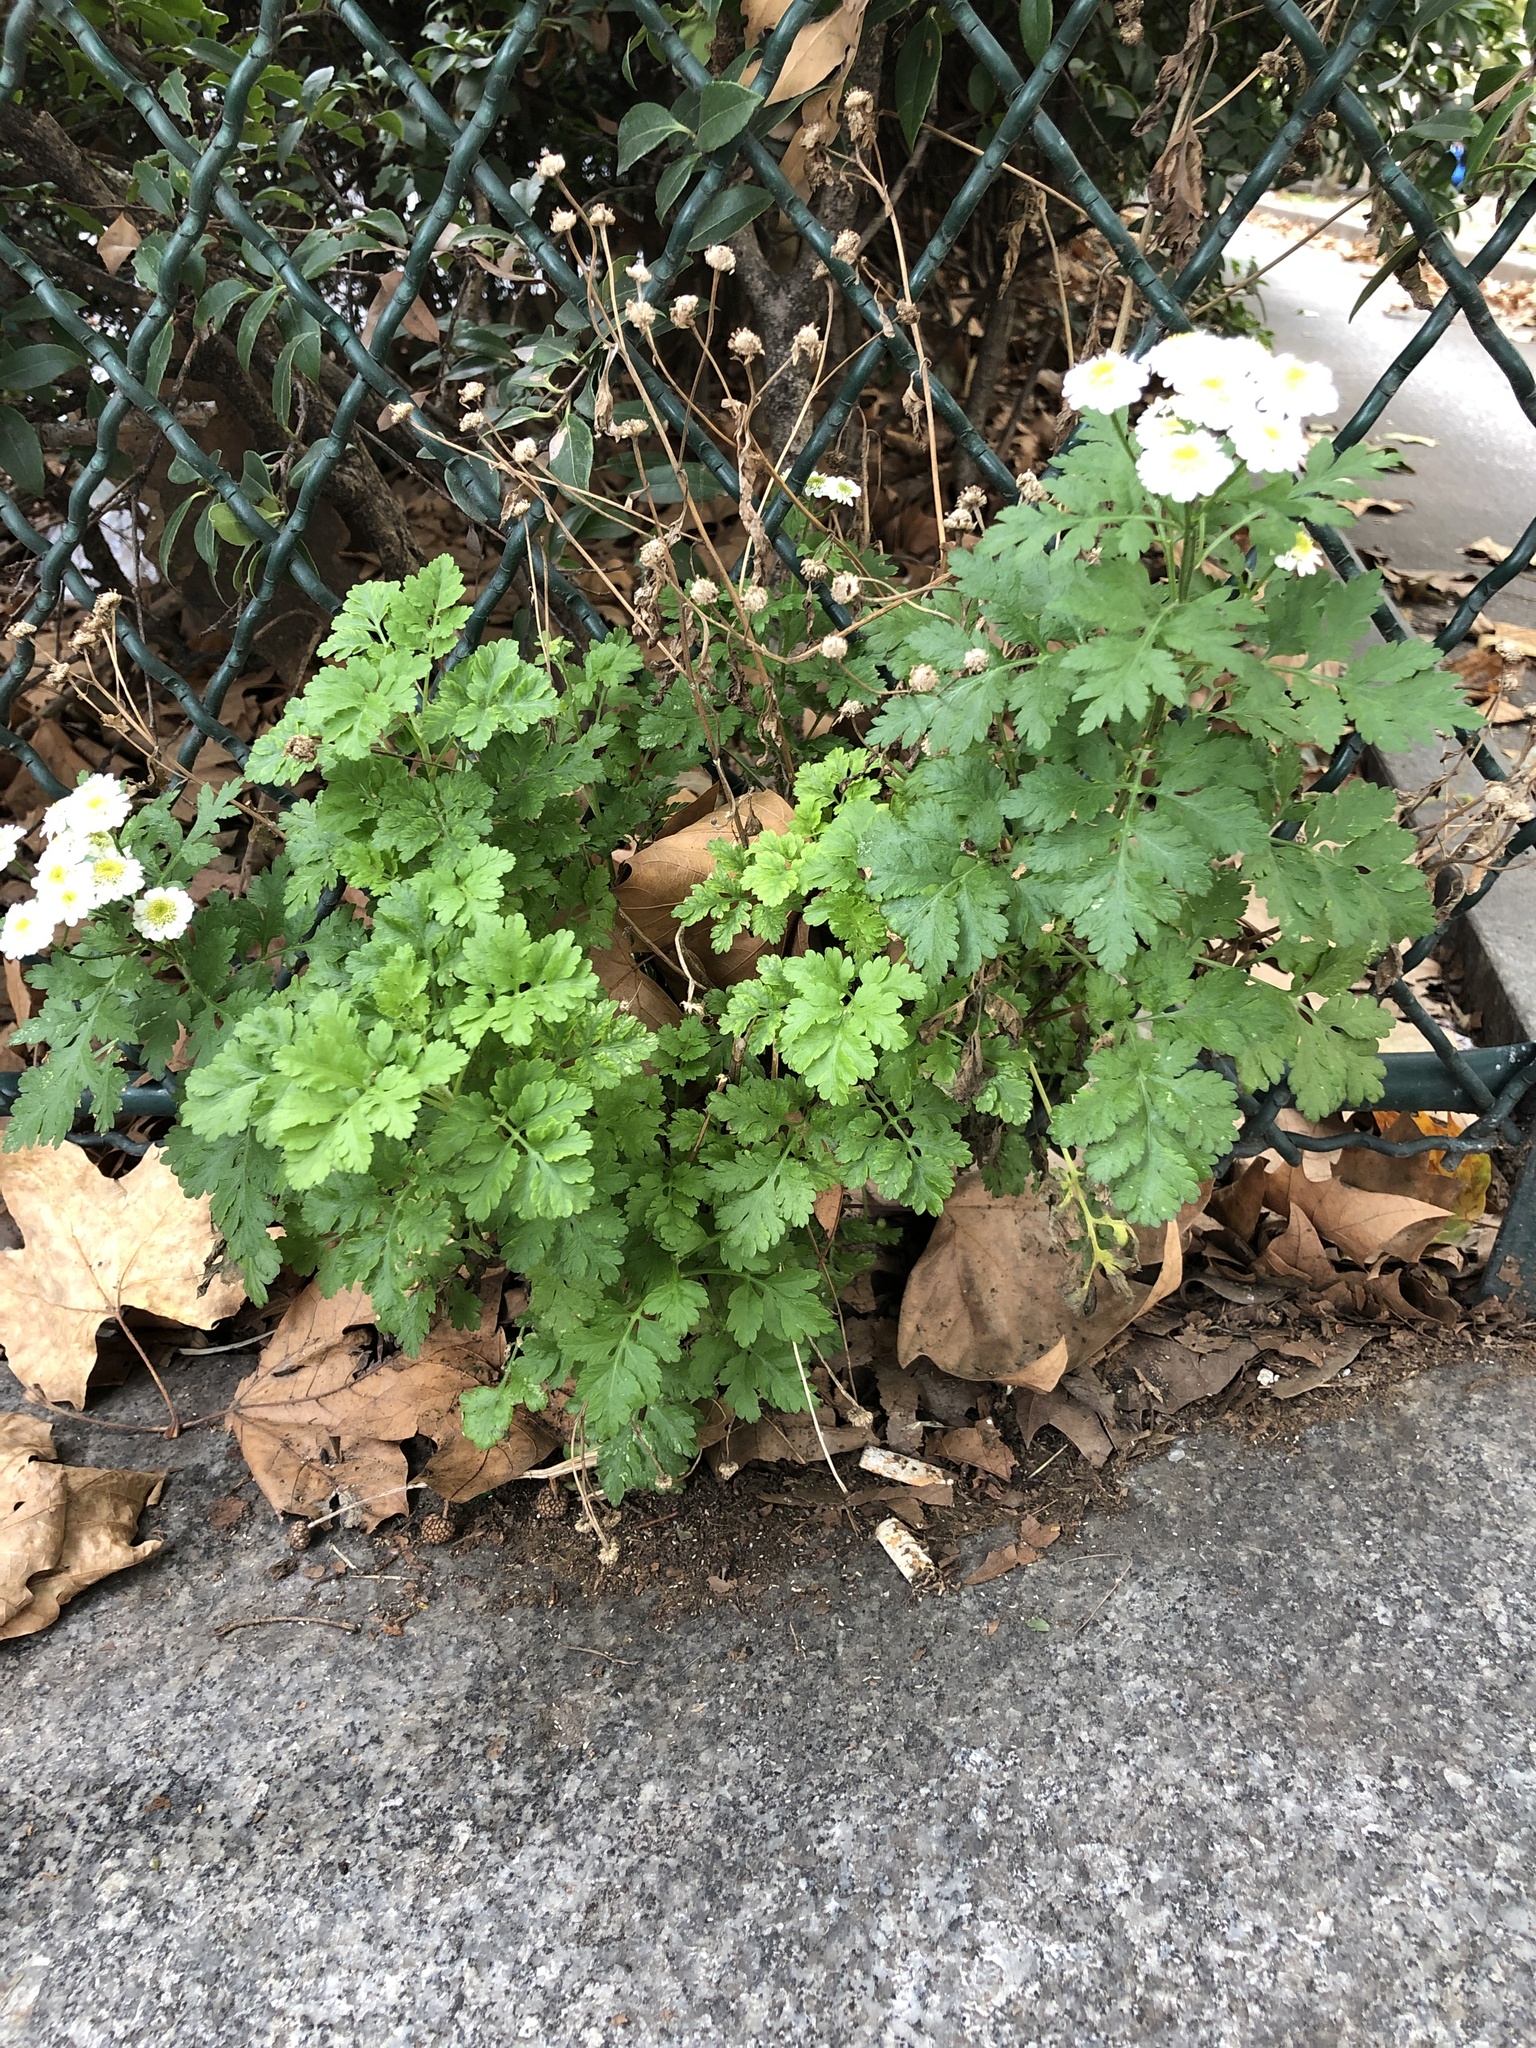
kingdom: Plantae
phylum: Tracheophyta
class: Magnoliopsida
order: Asterales
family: Asteraceae
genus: Tanacetum
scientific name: Tanacetum parthenium
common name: Feverfew
